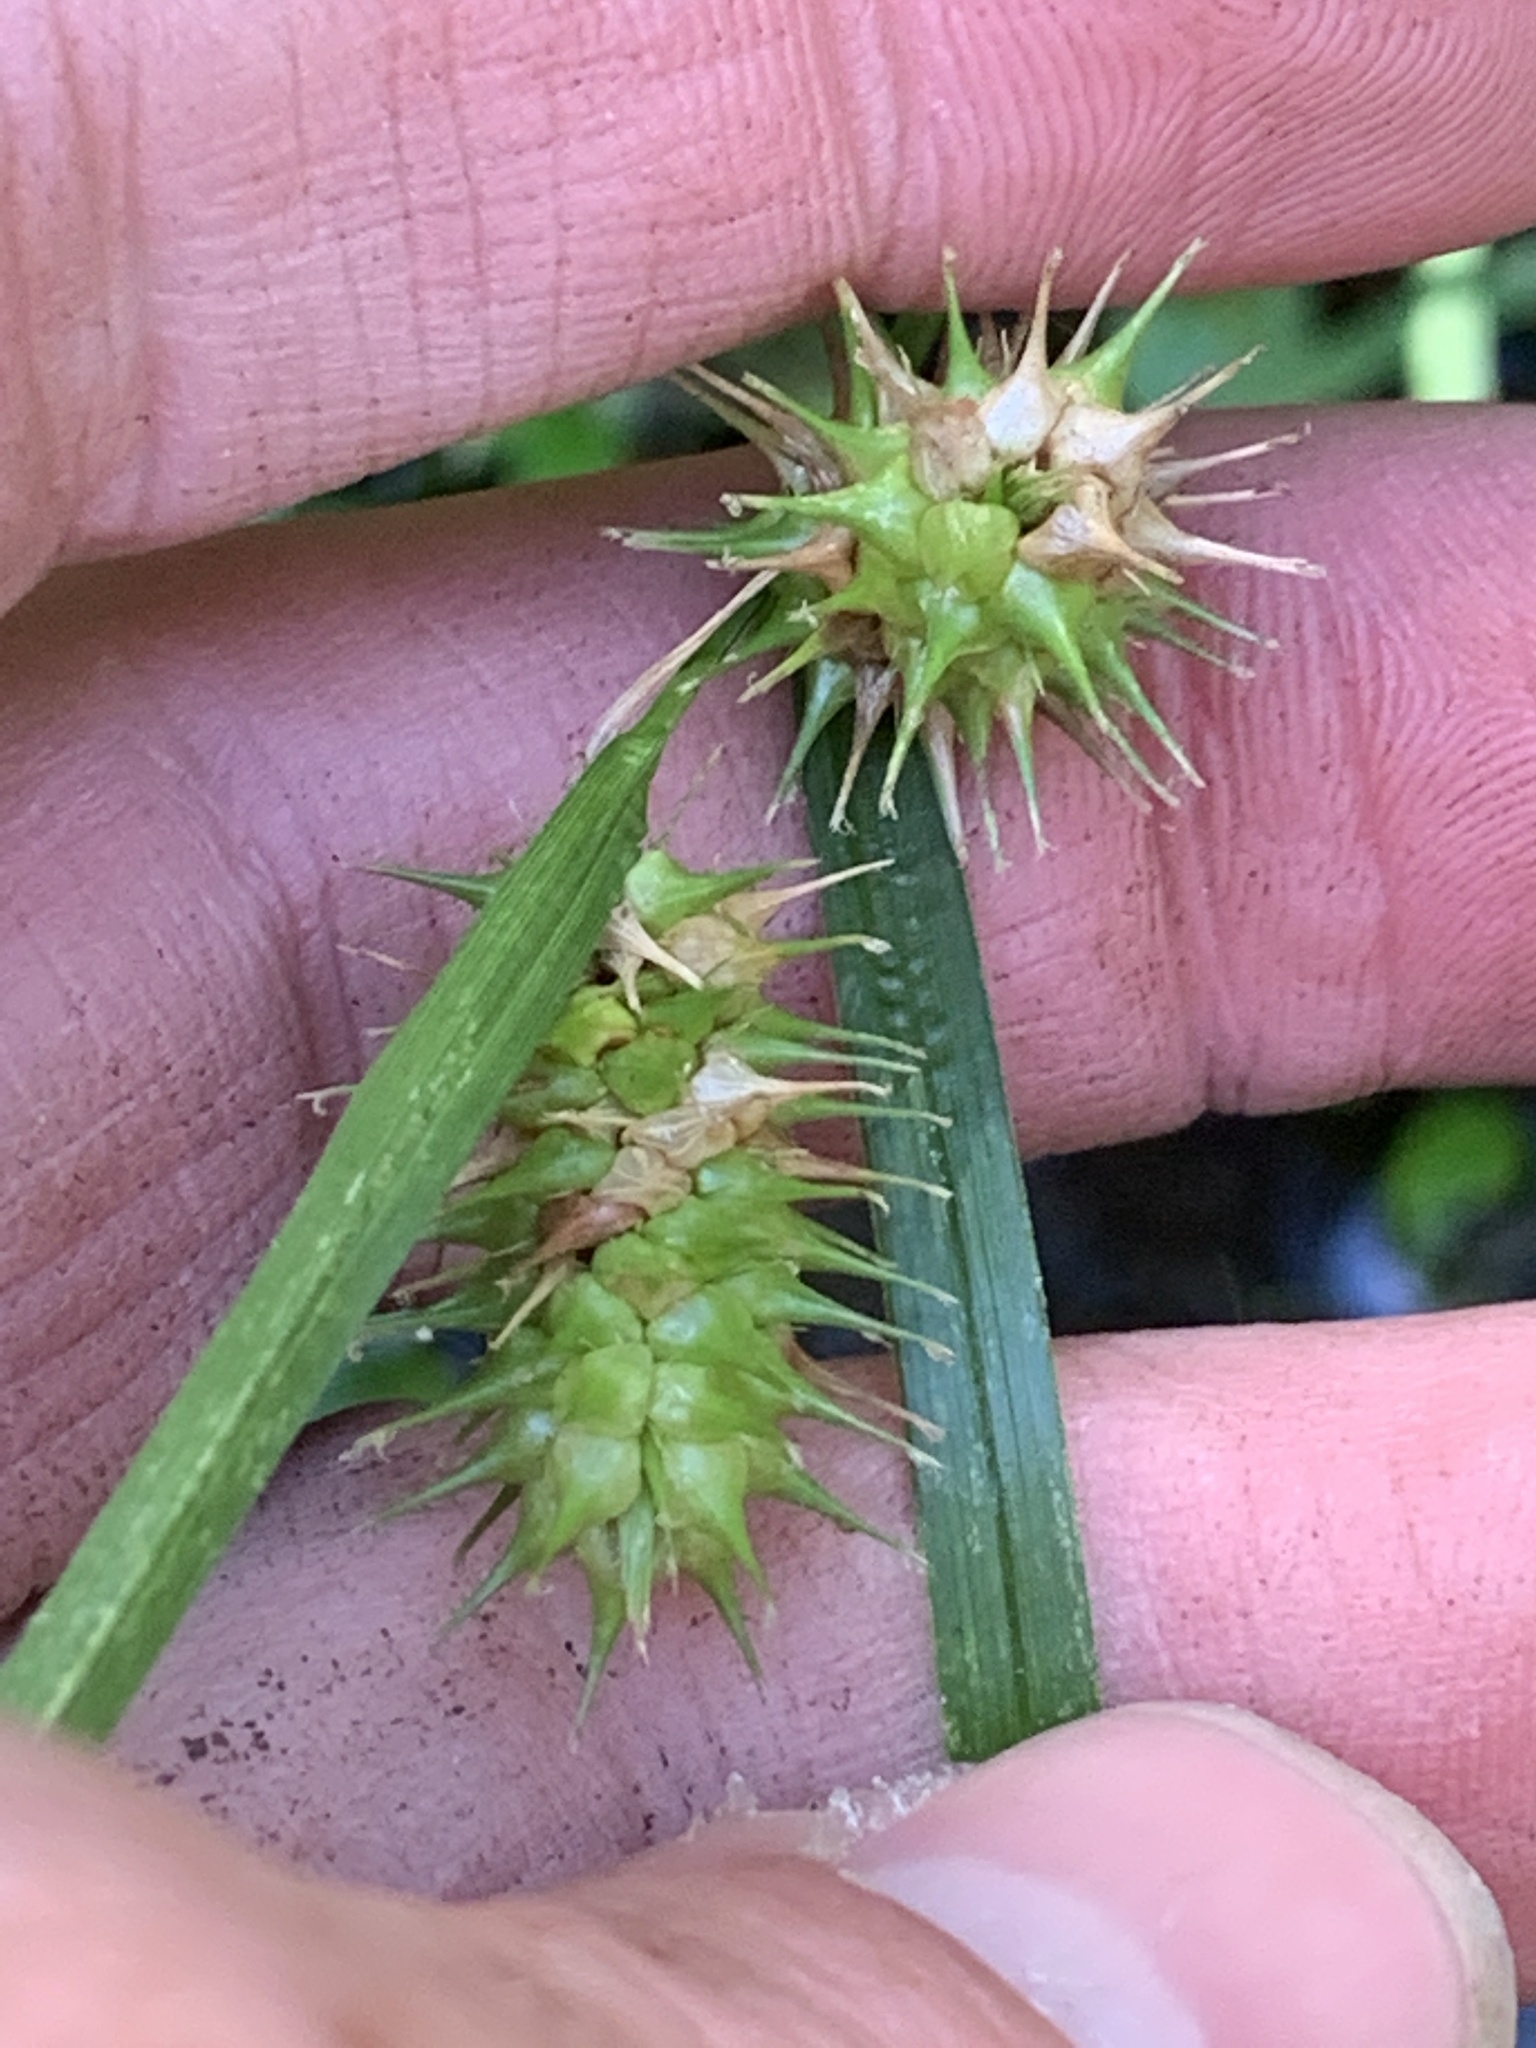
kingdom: Plantae
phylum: Tracheophyta
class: Liliopsida
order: Poales
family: Cyperaceae
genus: Carex
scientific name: Carex lurida
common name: Sallow sedge
